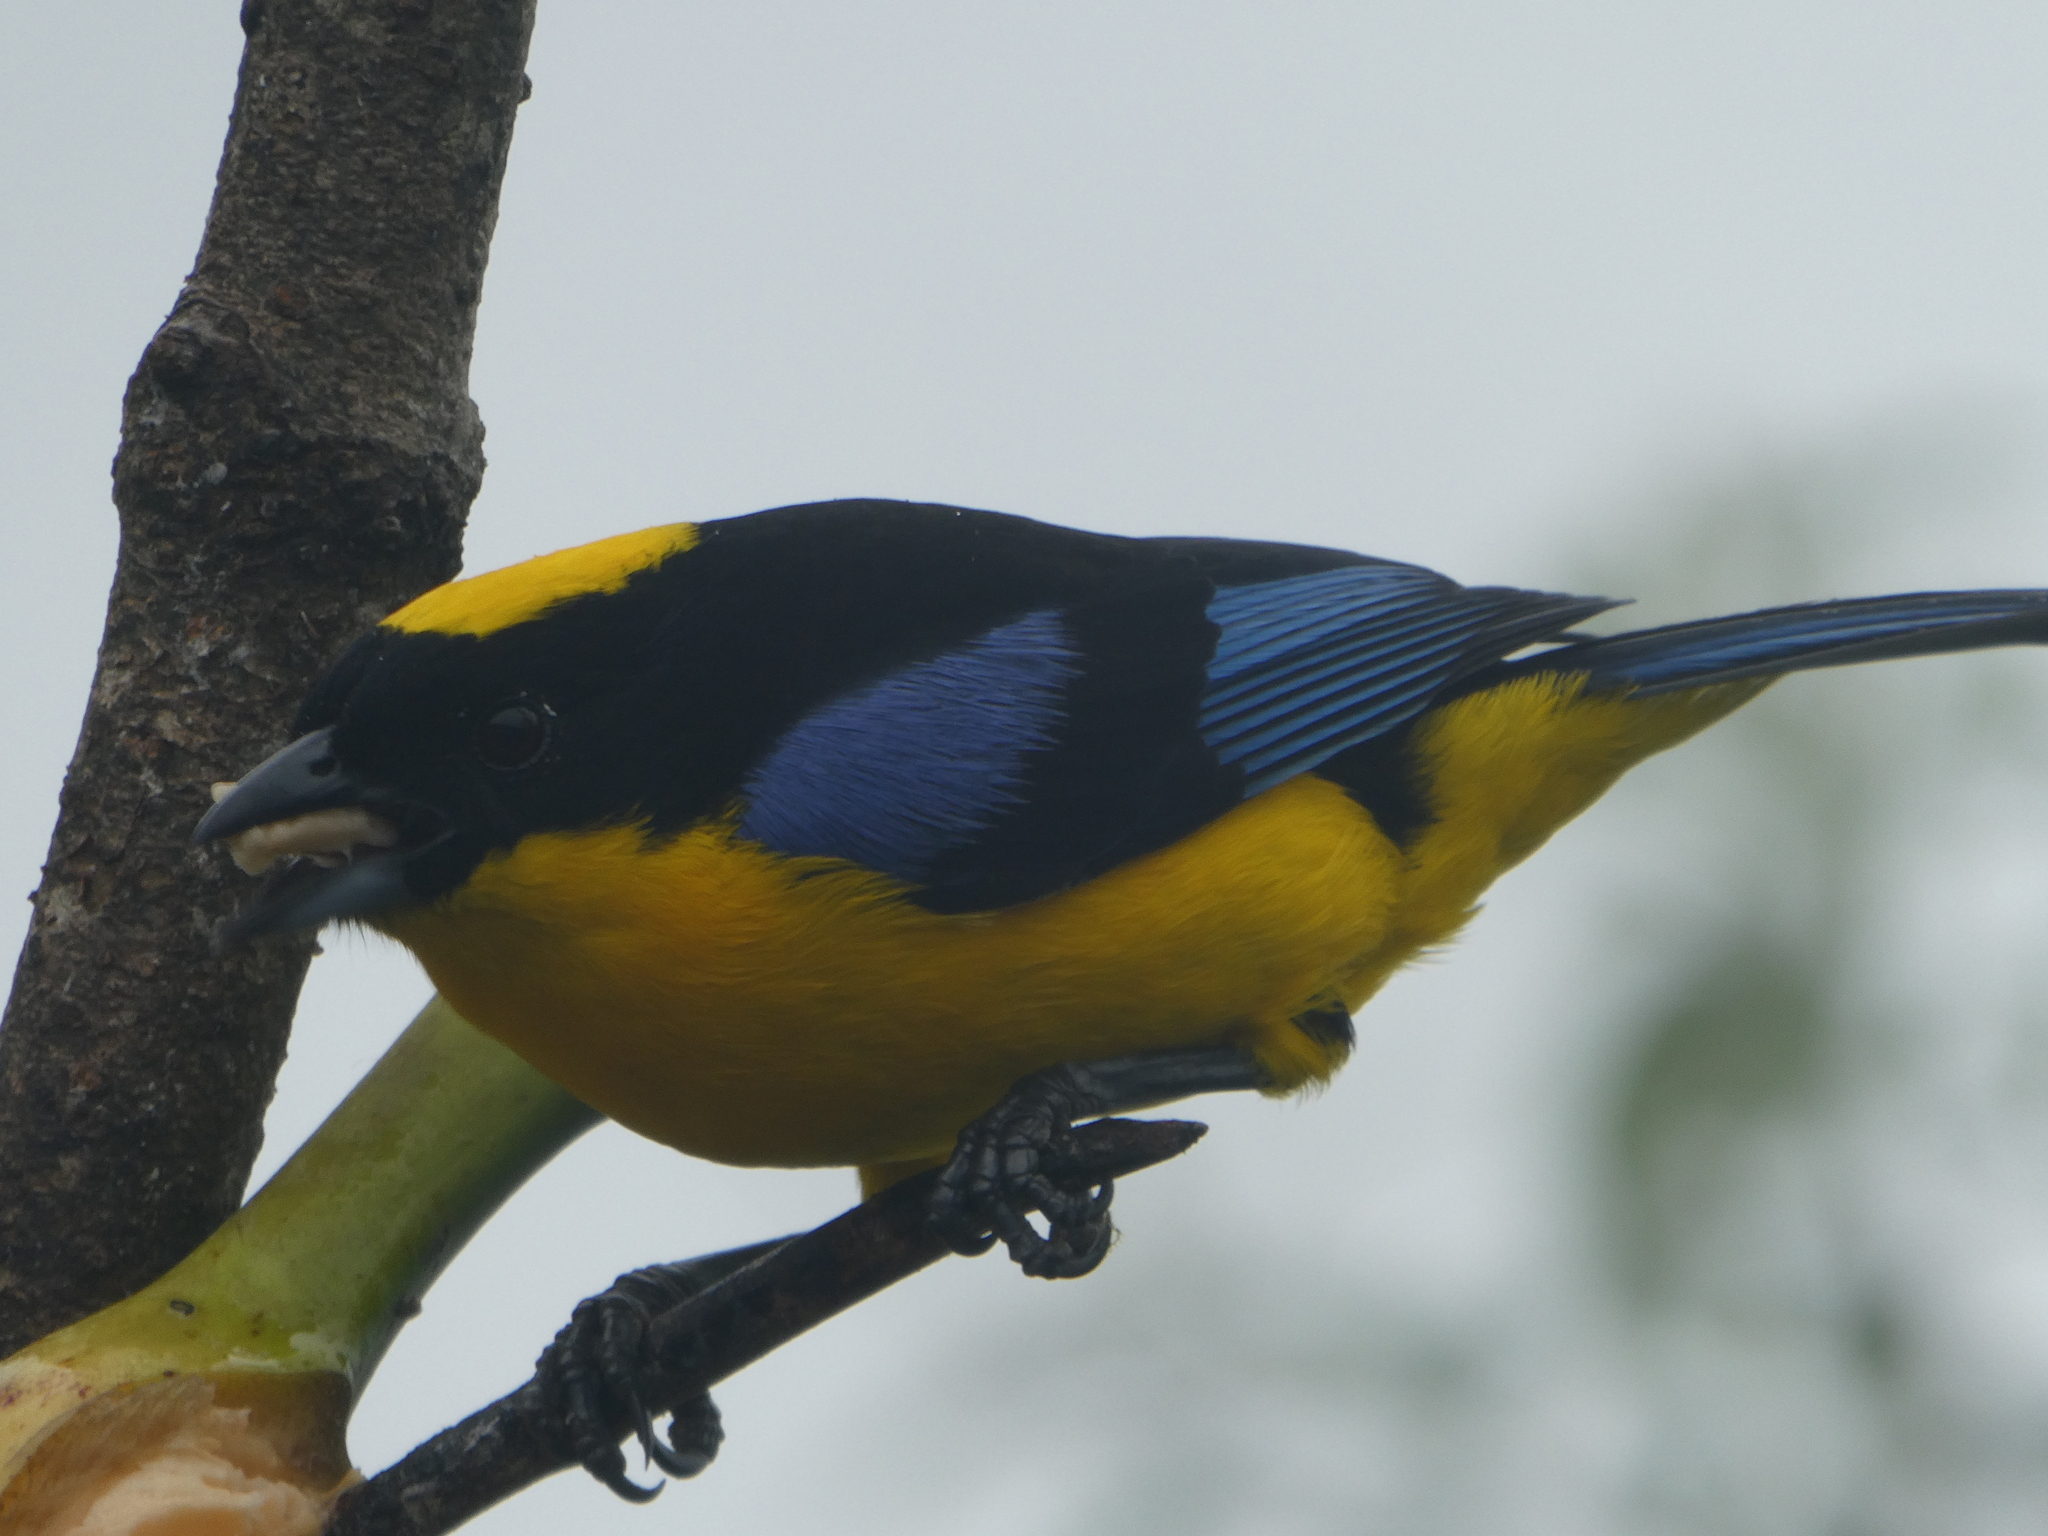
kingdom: Animalia
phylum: Chordata
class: Aves
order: Passeriformes
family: Thraupidae
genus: Anisognathus
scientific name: Anisognathus somptuosus
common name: Blue-winged mountain-tanager
